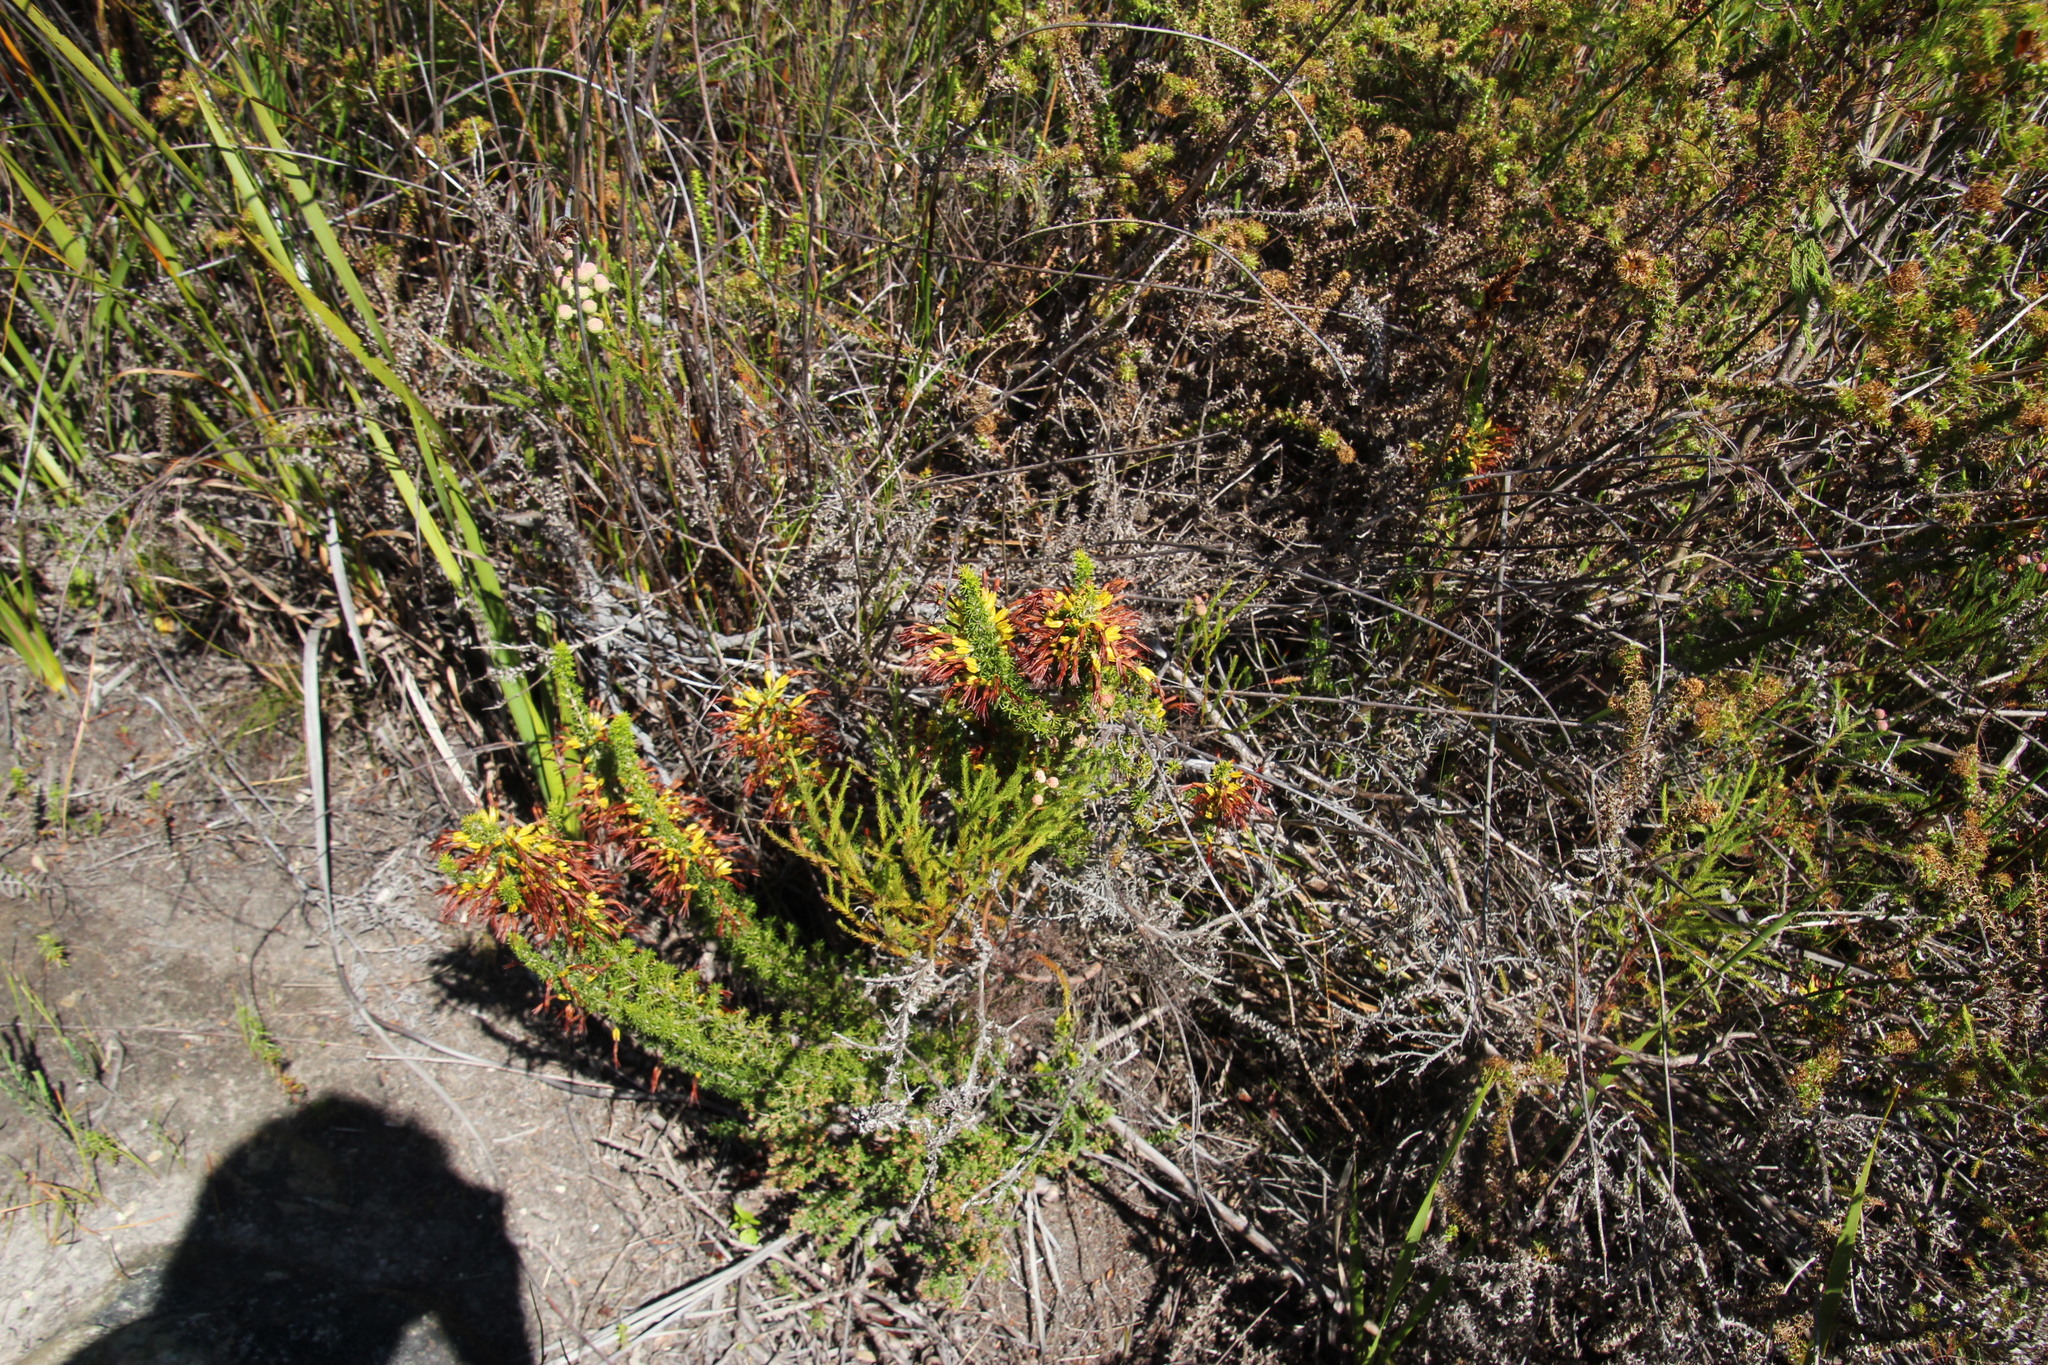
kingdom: Plantae
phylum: Tracheophyta
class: Magnoliopsida
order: Ericales
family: Ericaceae
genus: Erica
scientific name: Erica coccinea
